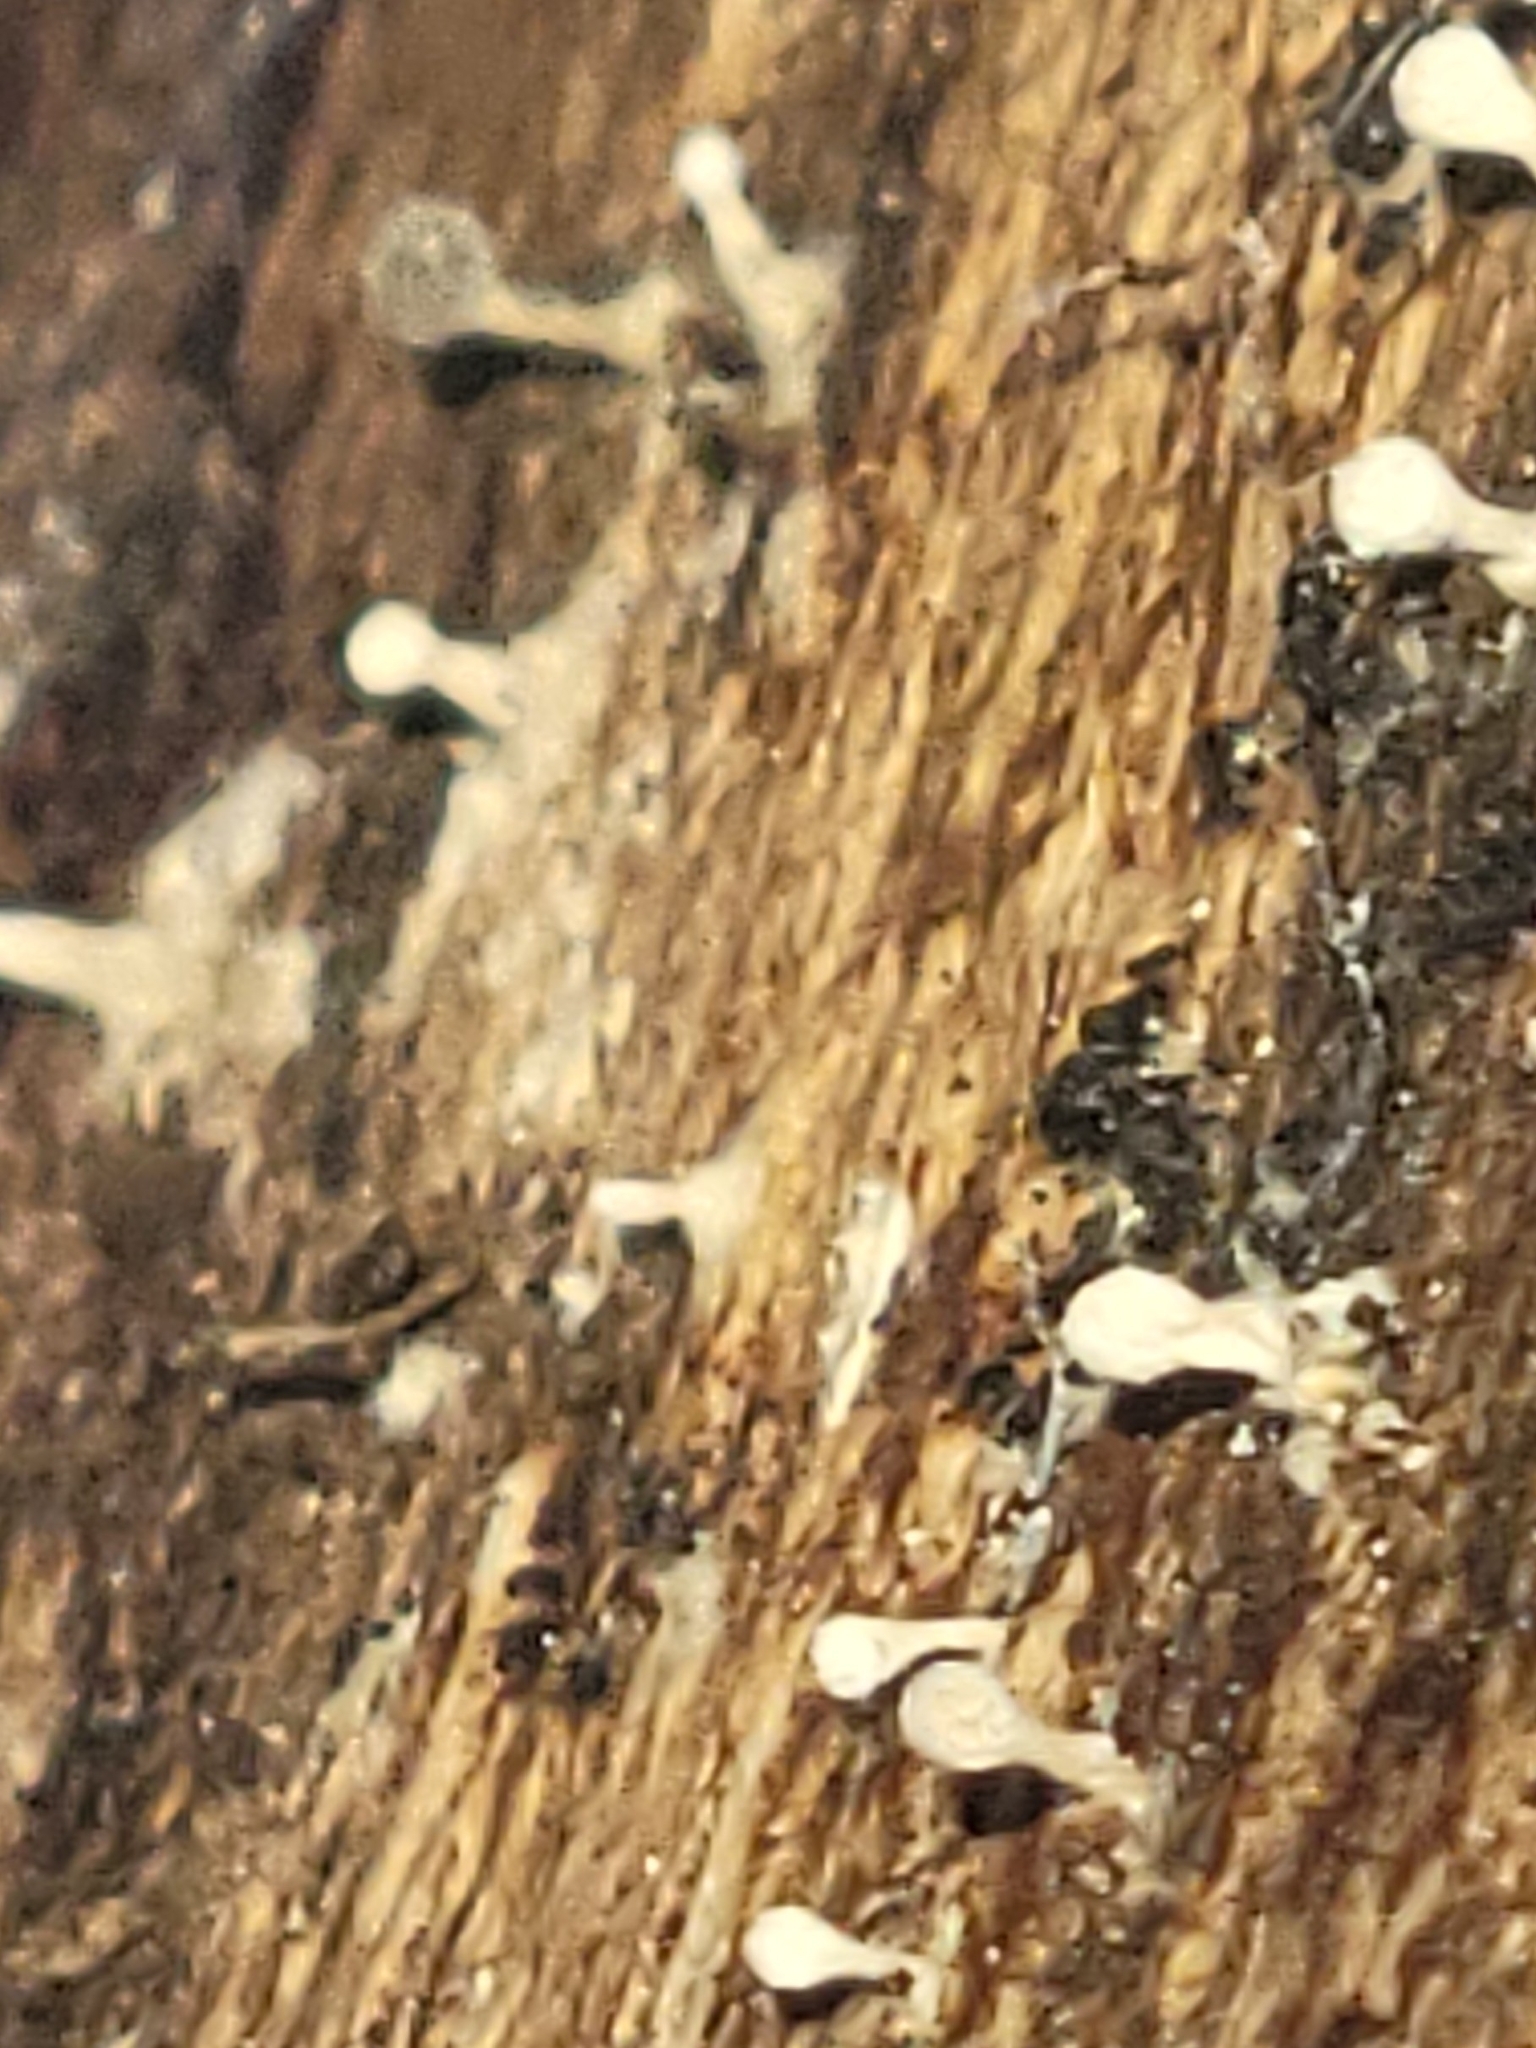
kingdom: Fungi
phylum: Basidiomycota
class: Atractiellomycetes
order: Atractiellales
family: Phleogenaceae
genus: Phleogena
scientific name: Phleogena faginea
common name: Fenugreek stalkball
